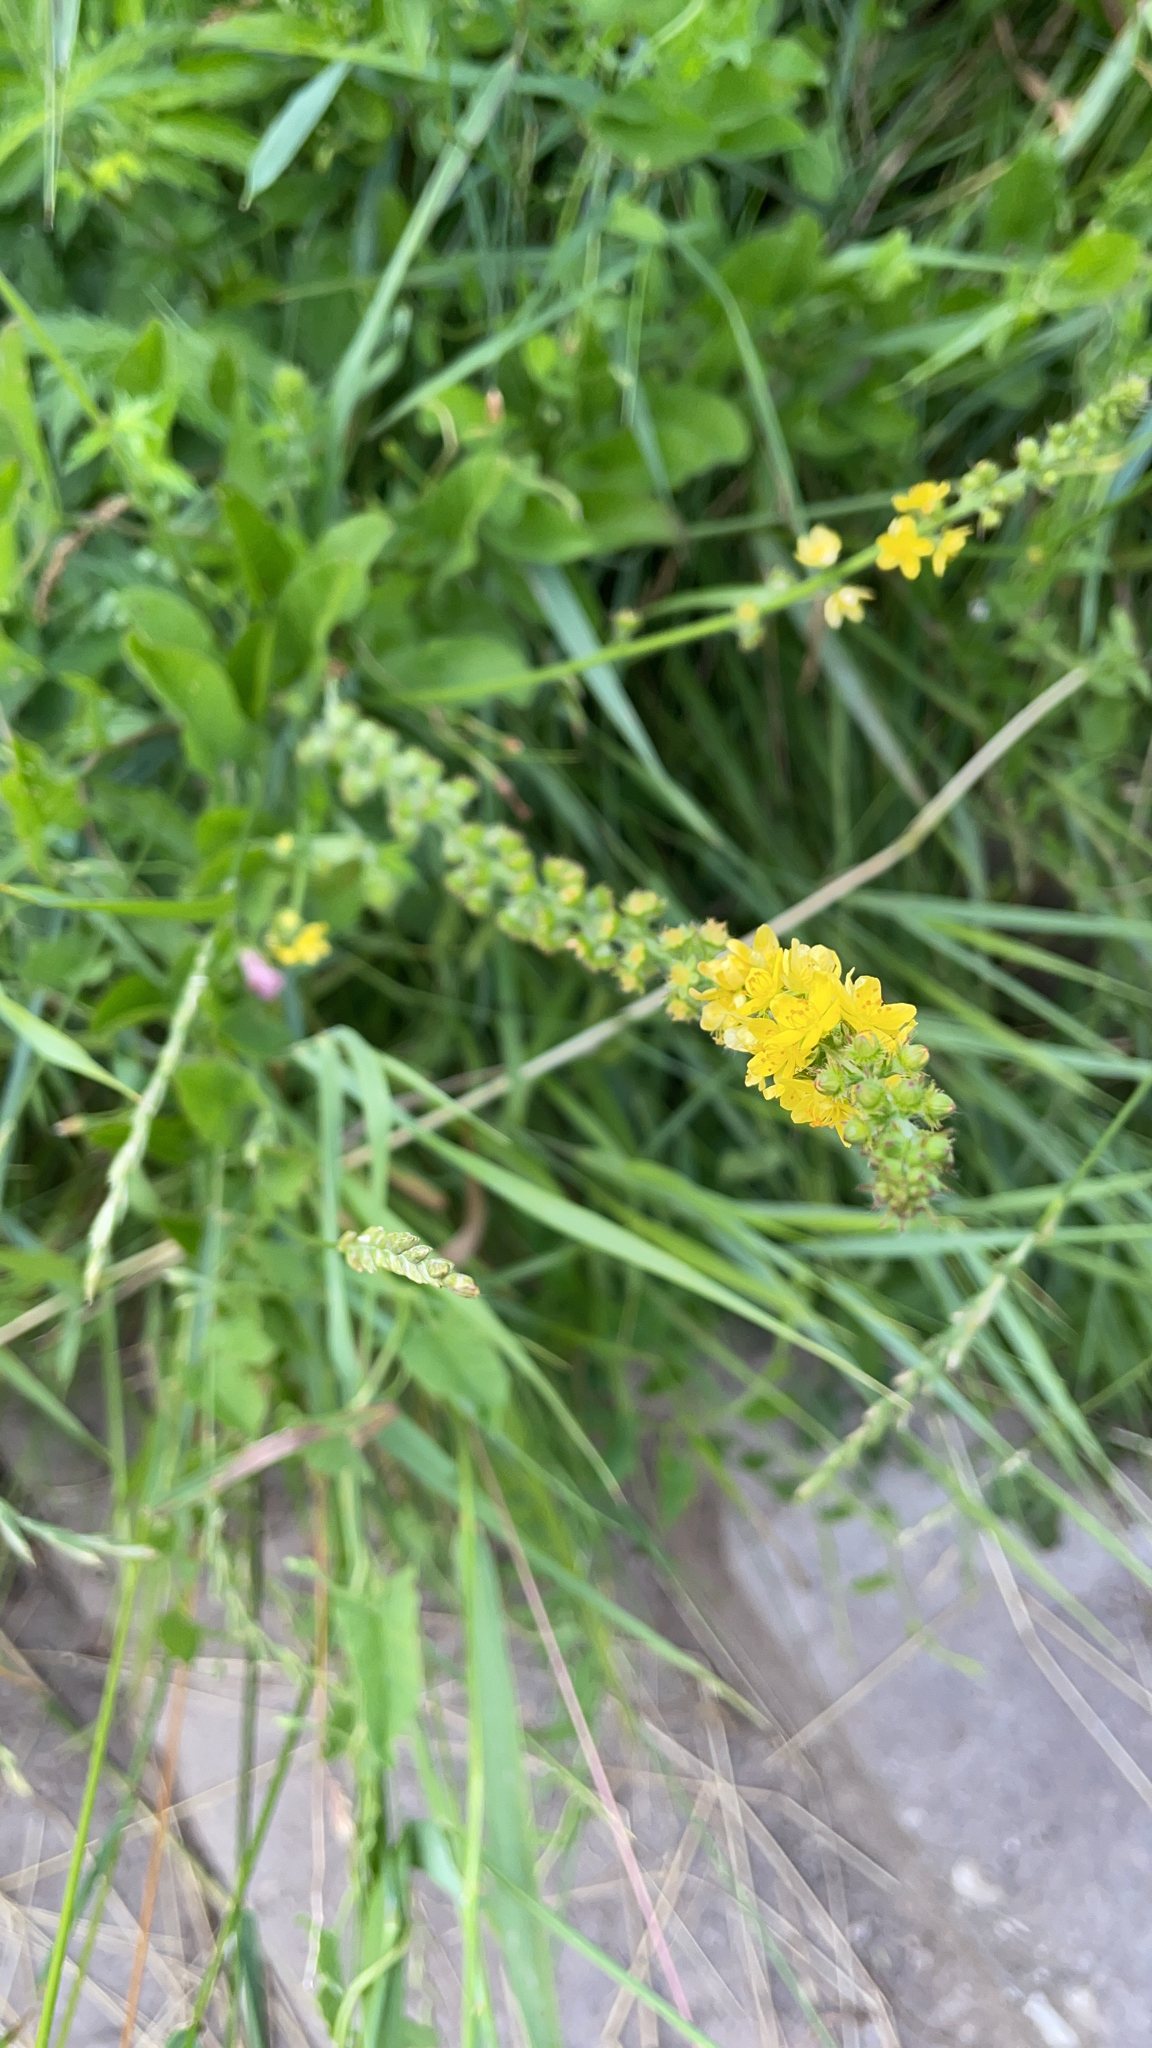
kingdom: Plantae
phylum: Tracheophyta
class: Magnoliopsida
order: Rosales
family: Rosaceae
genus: Agrimonia
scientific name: Agrimonia eupatoria
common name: Agrimony
